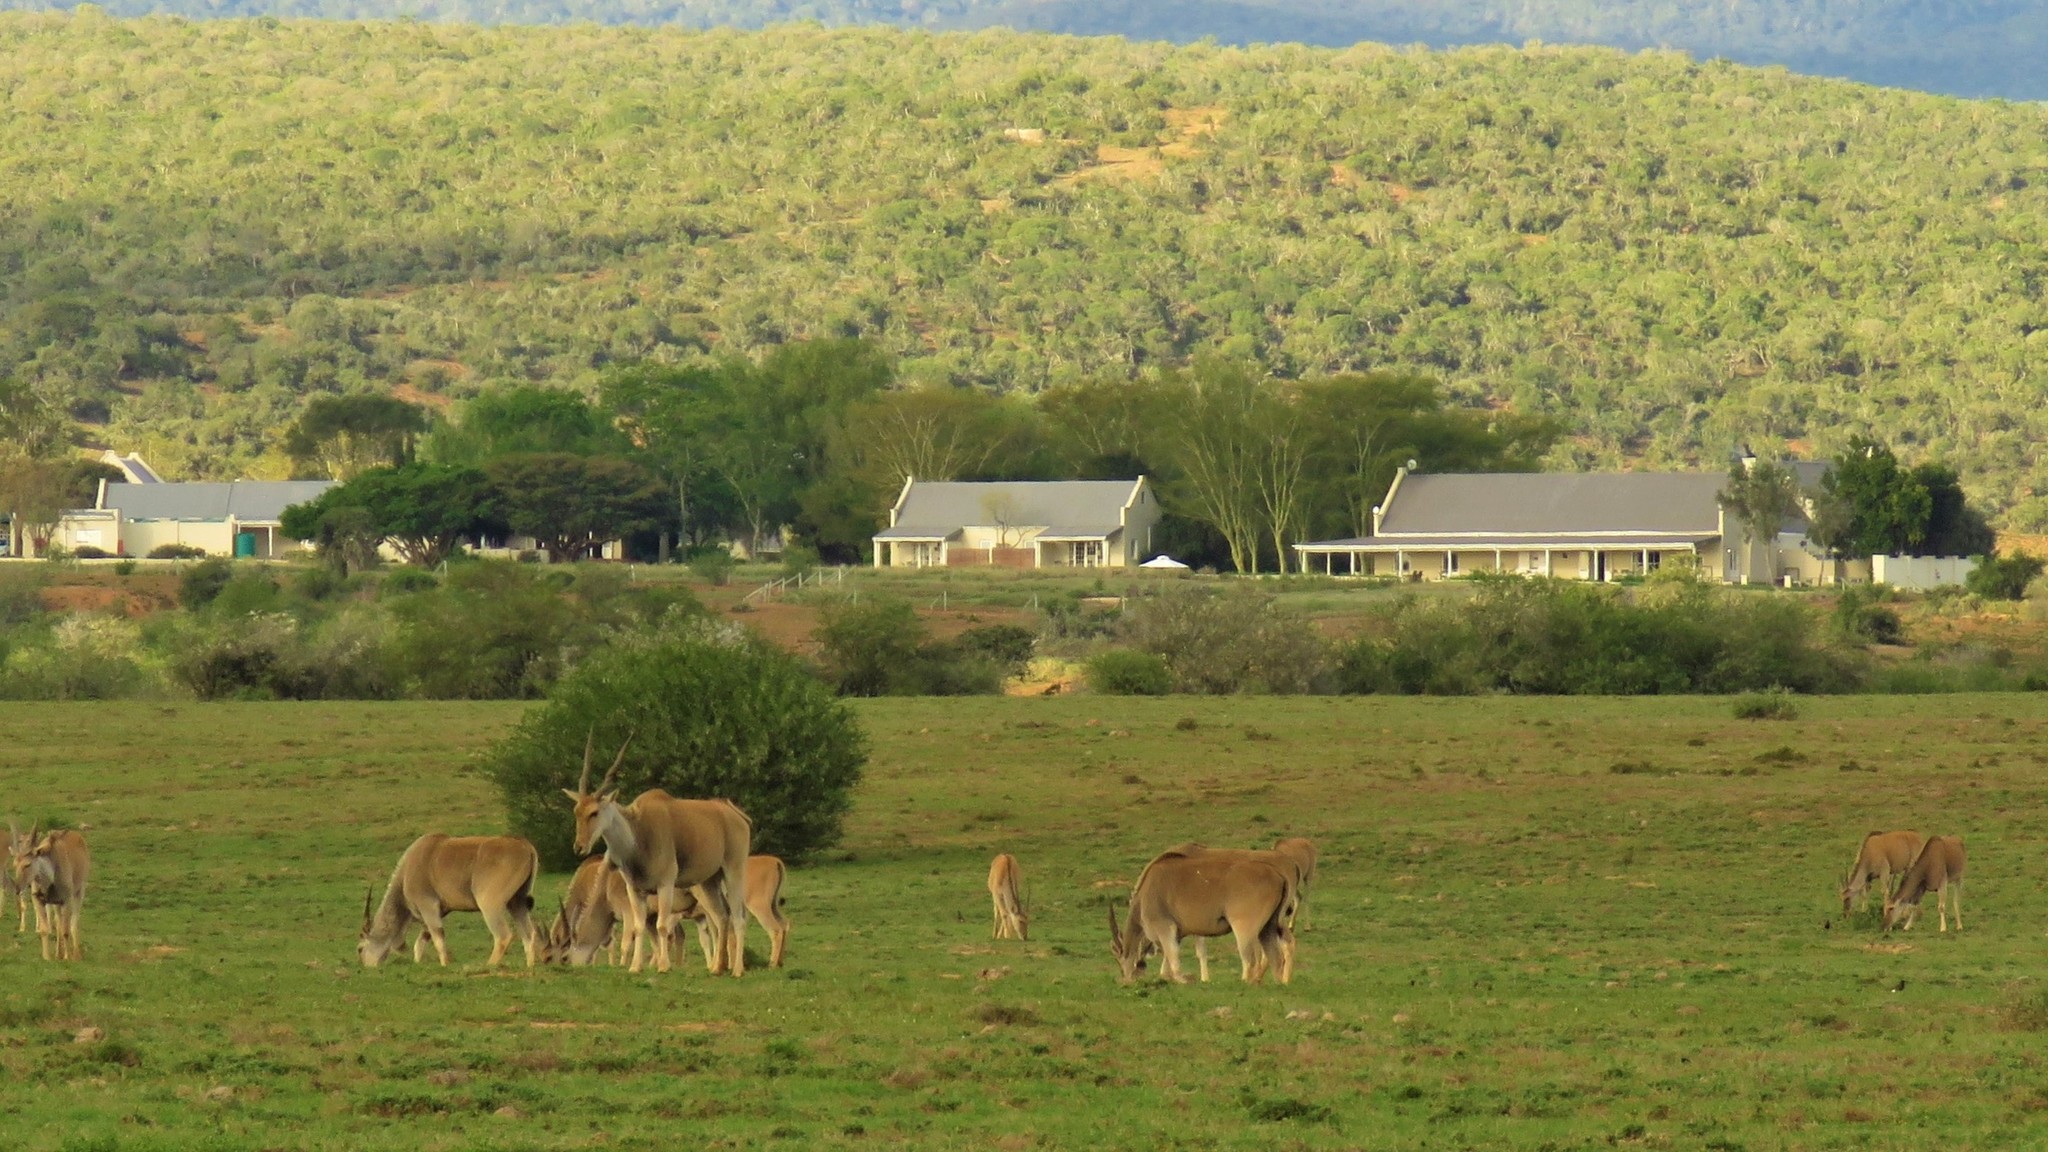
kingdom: Animalia
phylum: Chordata
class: Mammalia
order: Artiodactyla
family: Bovidae
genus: Taurotragus
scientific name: Taurotragus oryx
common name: Common eland
